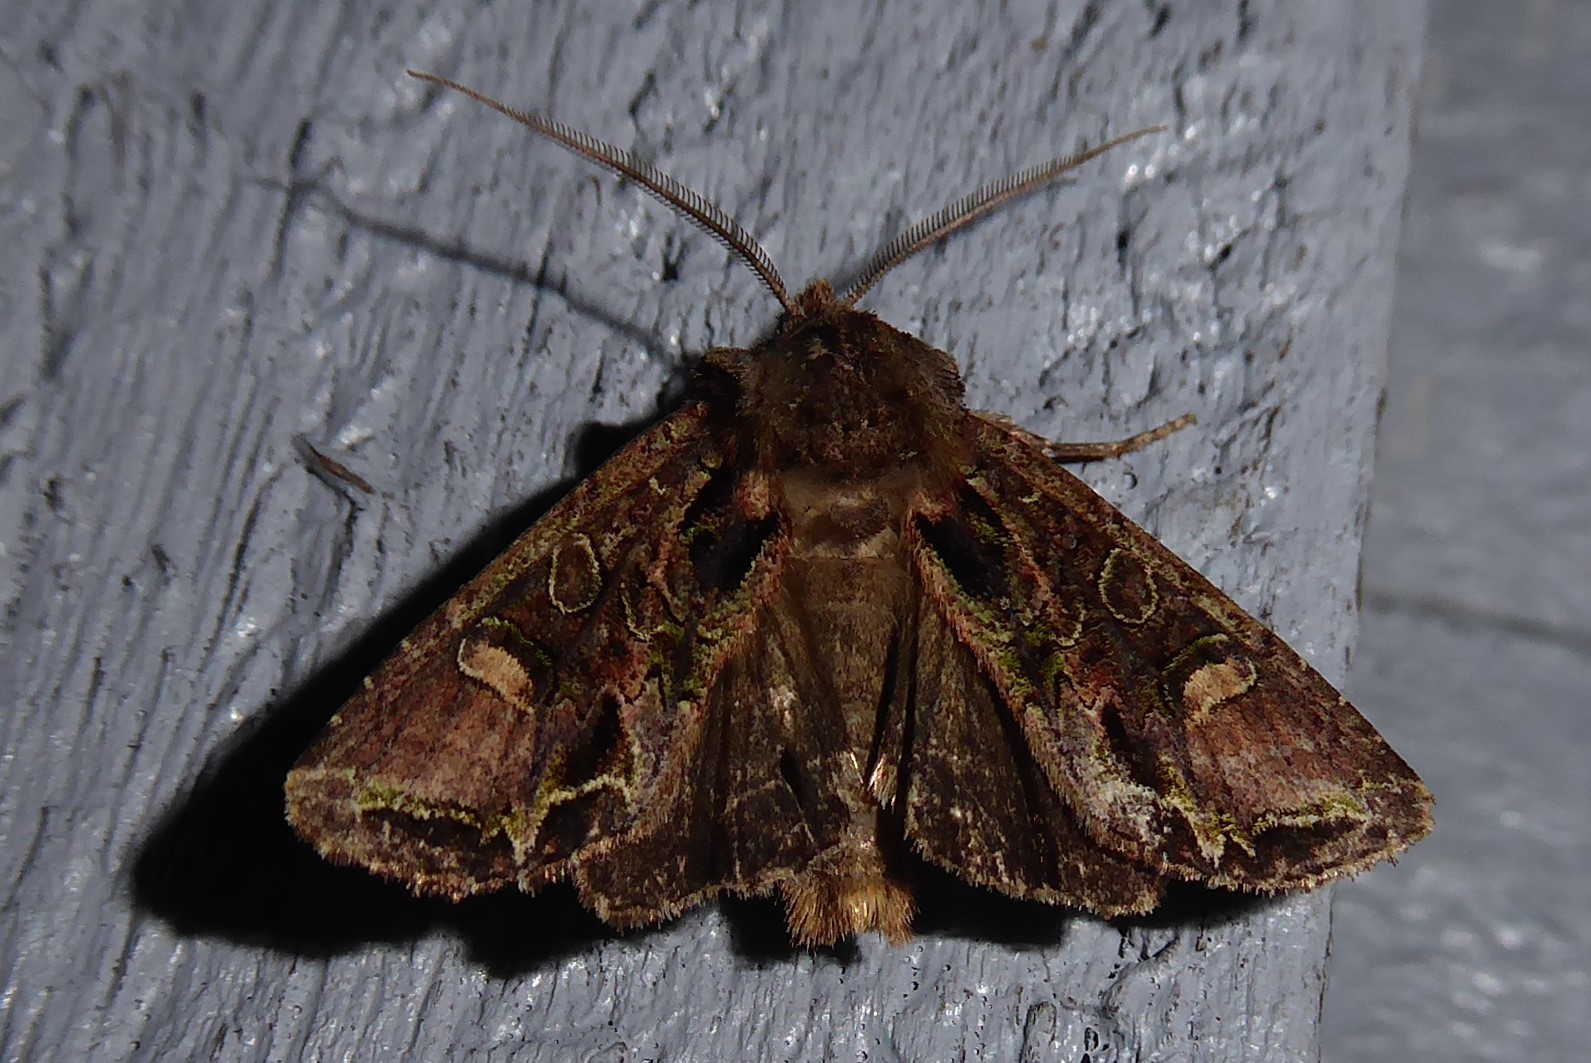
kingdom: Animalia
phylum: Arthropoda
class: Insecta
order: Lepidoptera
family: Noctuidae
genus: Ichneutica
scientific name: Ichneutica insignis
